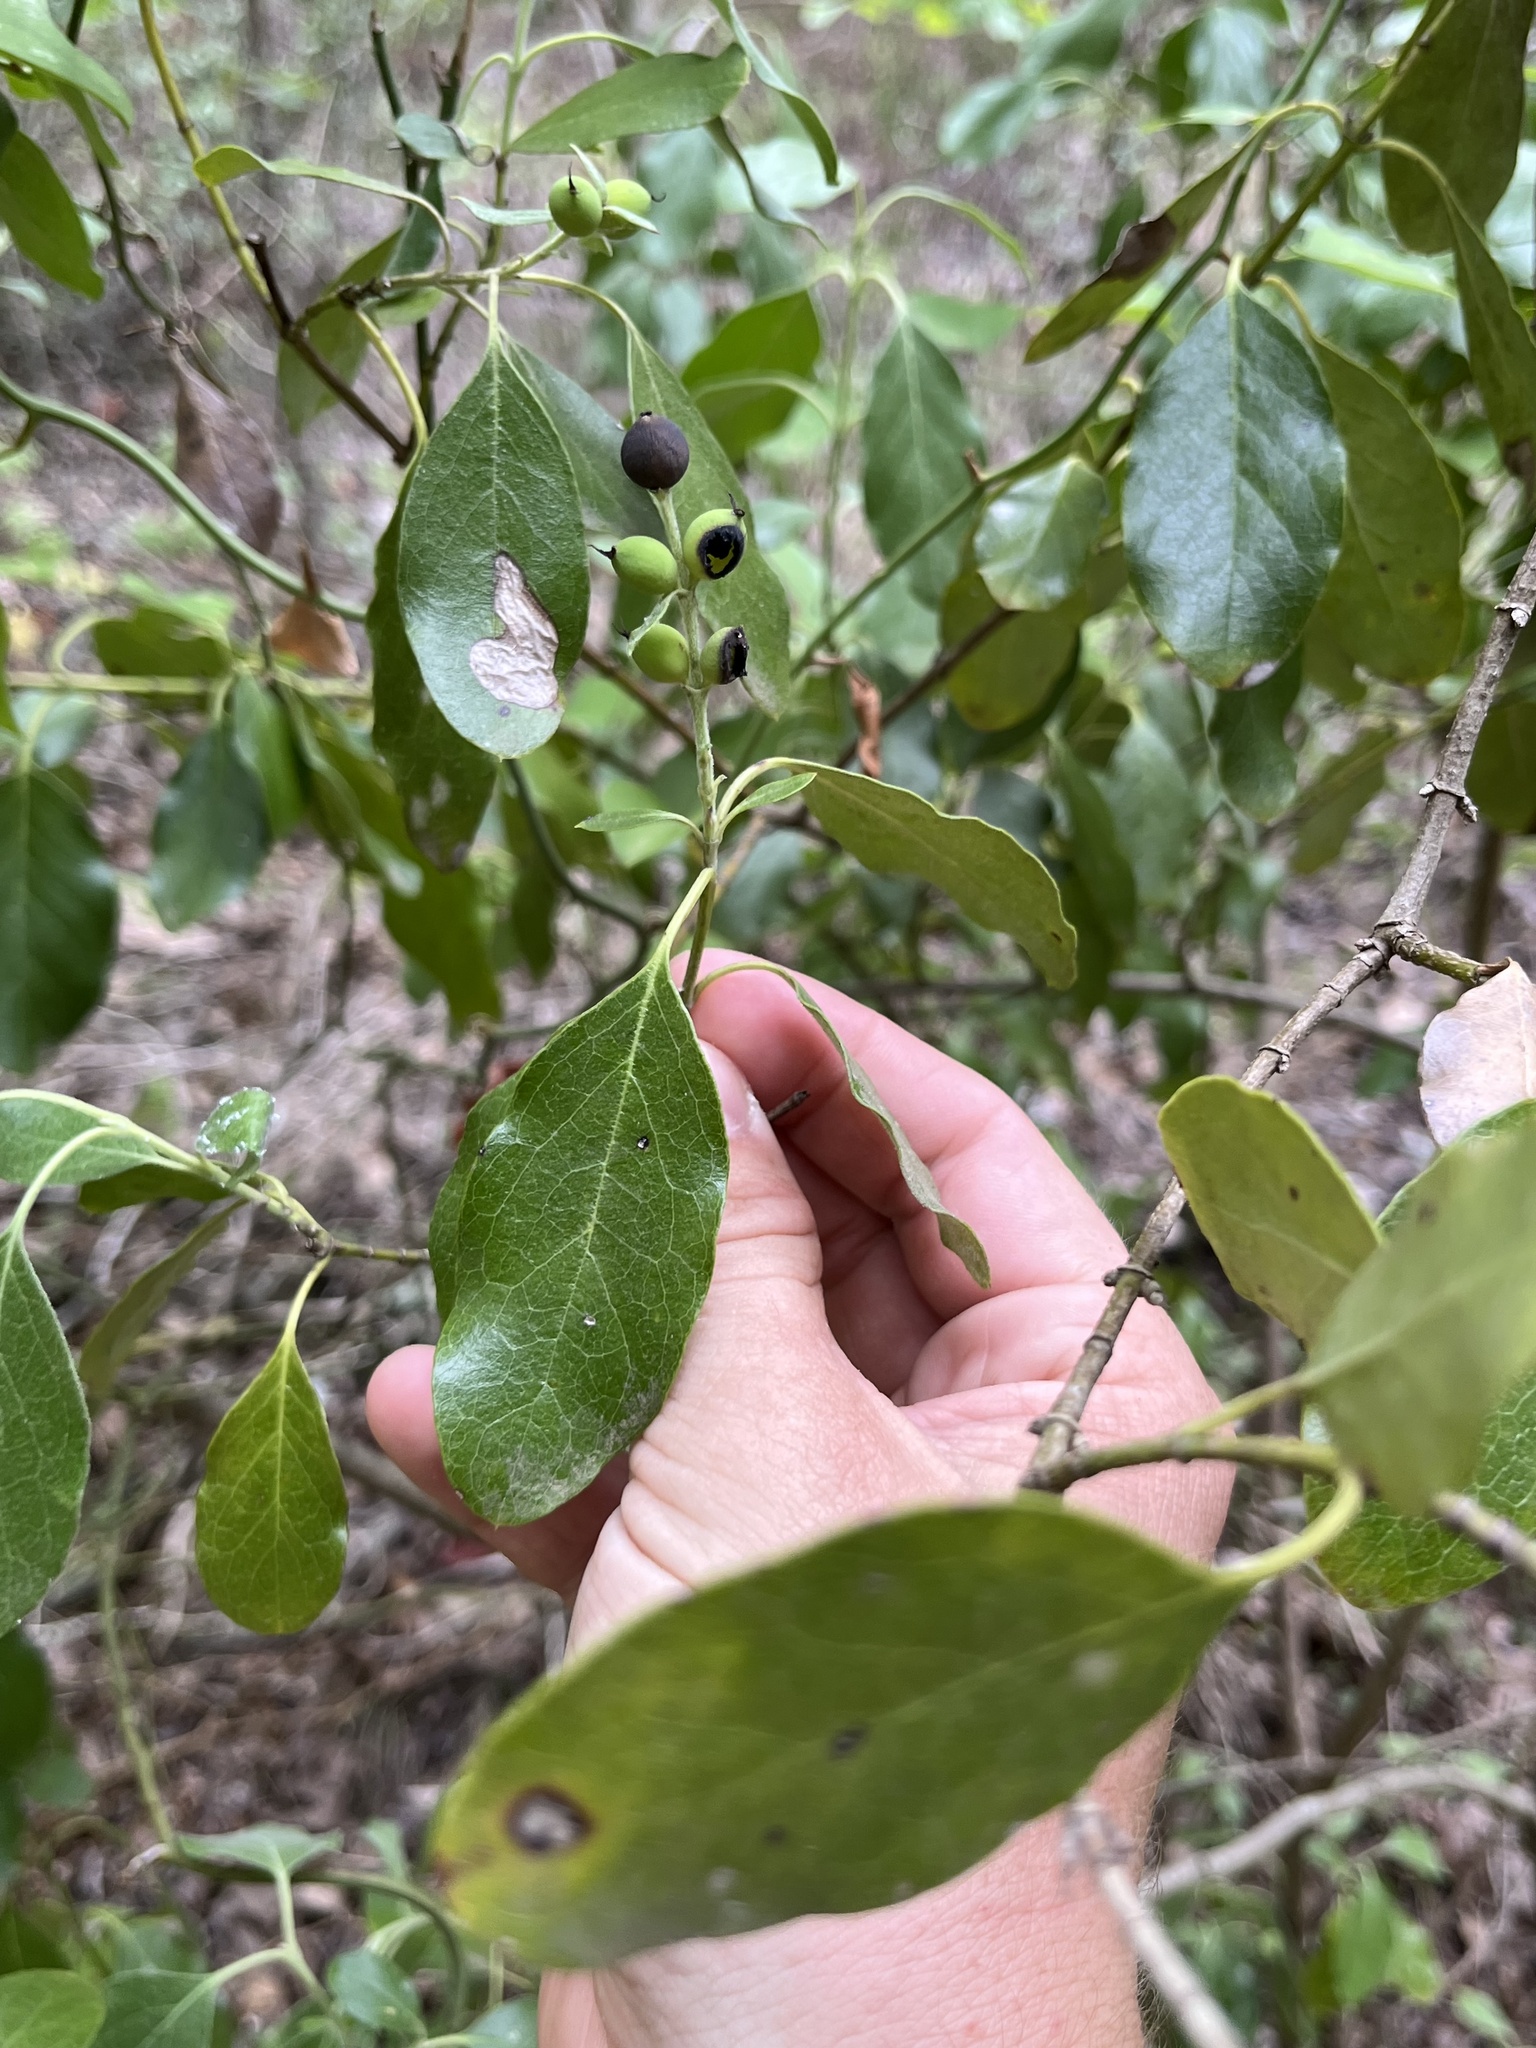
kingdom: Plantae
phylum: Tracheophyta
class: Magnoliopsida
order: Garryales
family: Garryaceae
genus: Garrya
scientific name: Garrya lindheimeri
